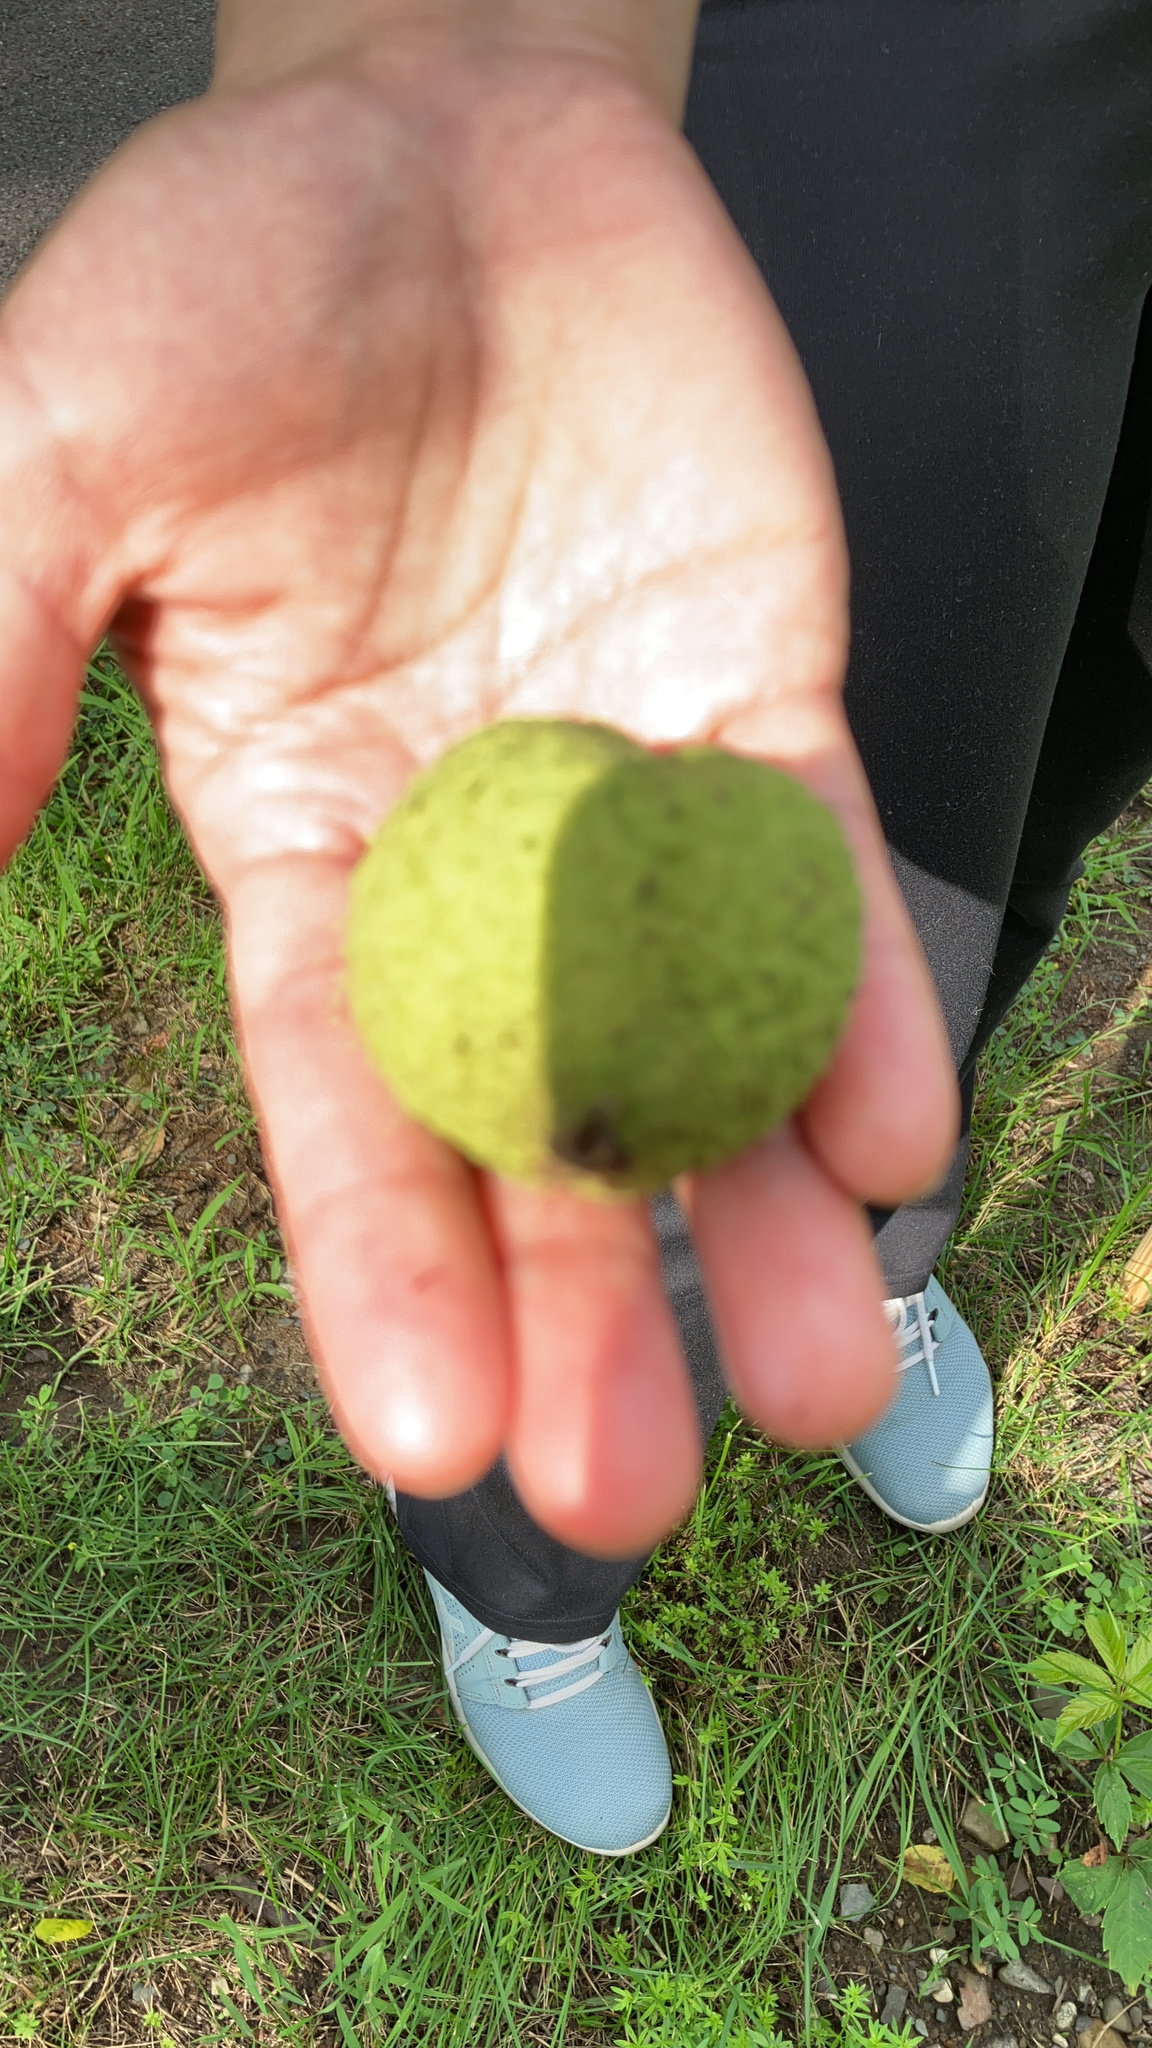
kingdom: Plantae
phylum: Tracheophyta
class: Magnoliopsida
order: Fagales
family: Juglandaceae
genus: Juglans
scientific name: Juglans nigra
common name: Black walnut
